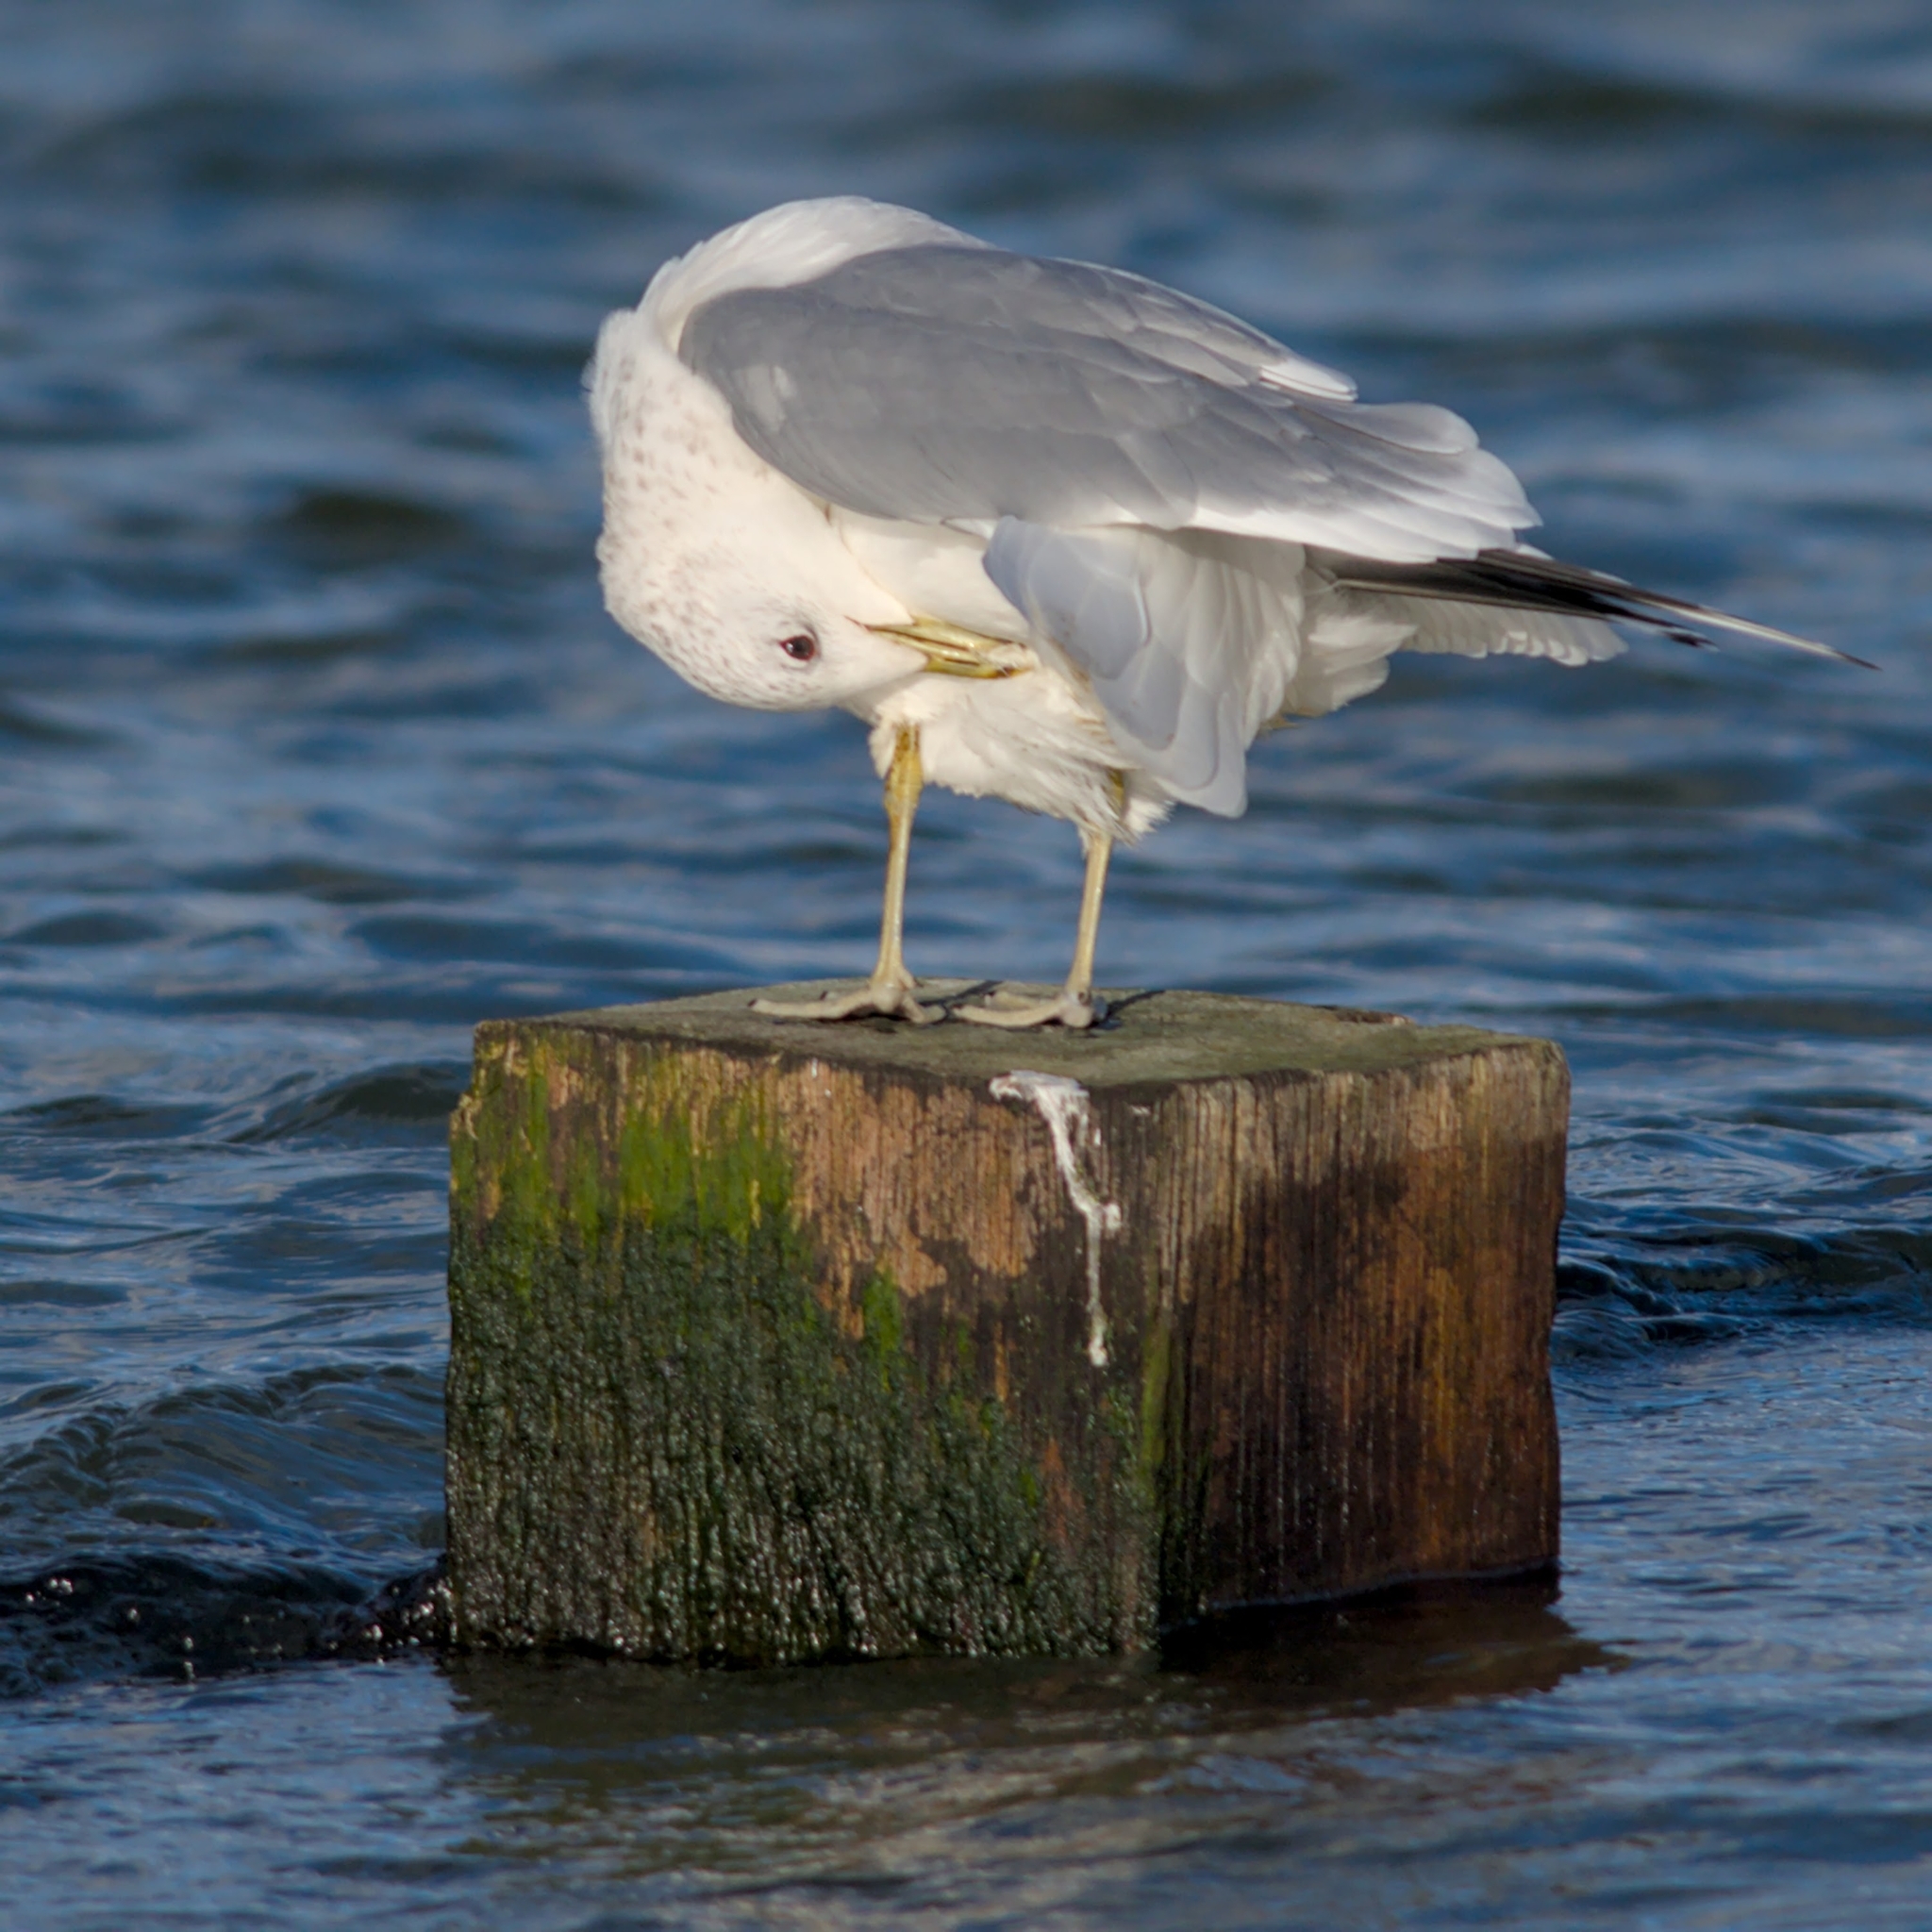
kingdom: Animalia
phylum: Chordata
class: Aves
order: Charadriiformes
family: Laridae
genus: Larus
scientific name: Larus canus
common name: Mew gull
